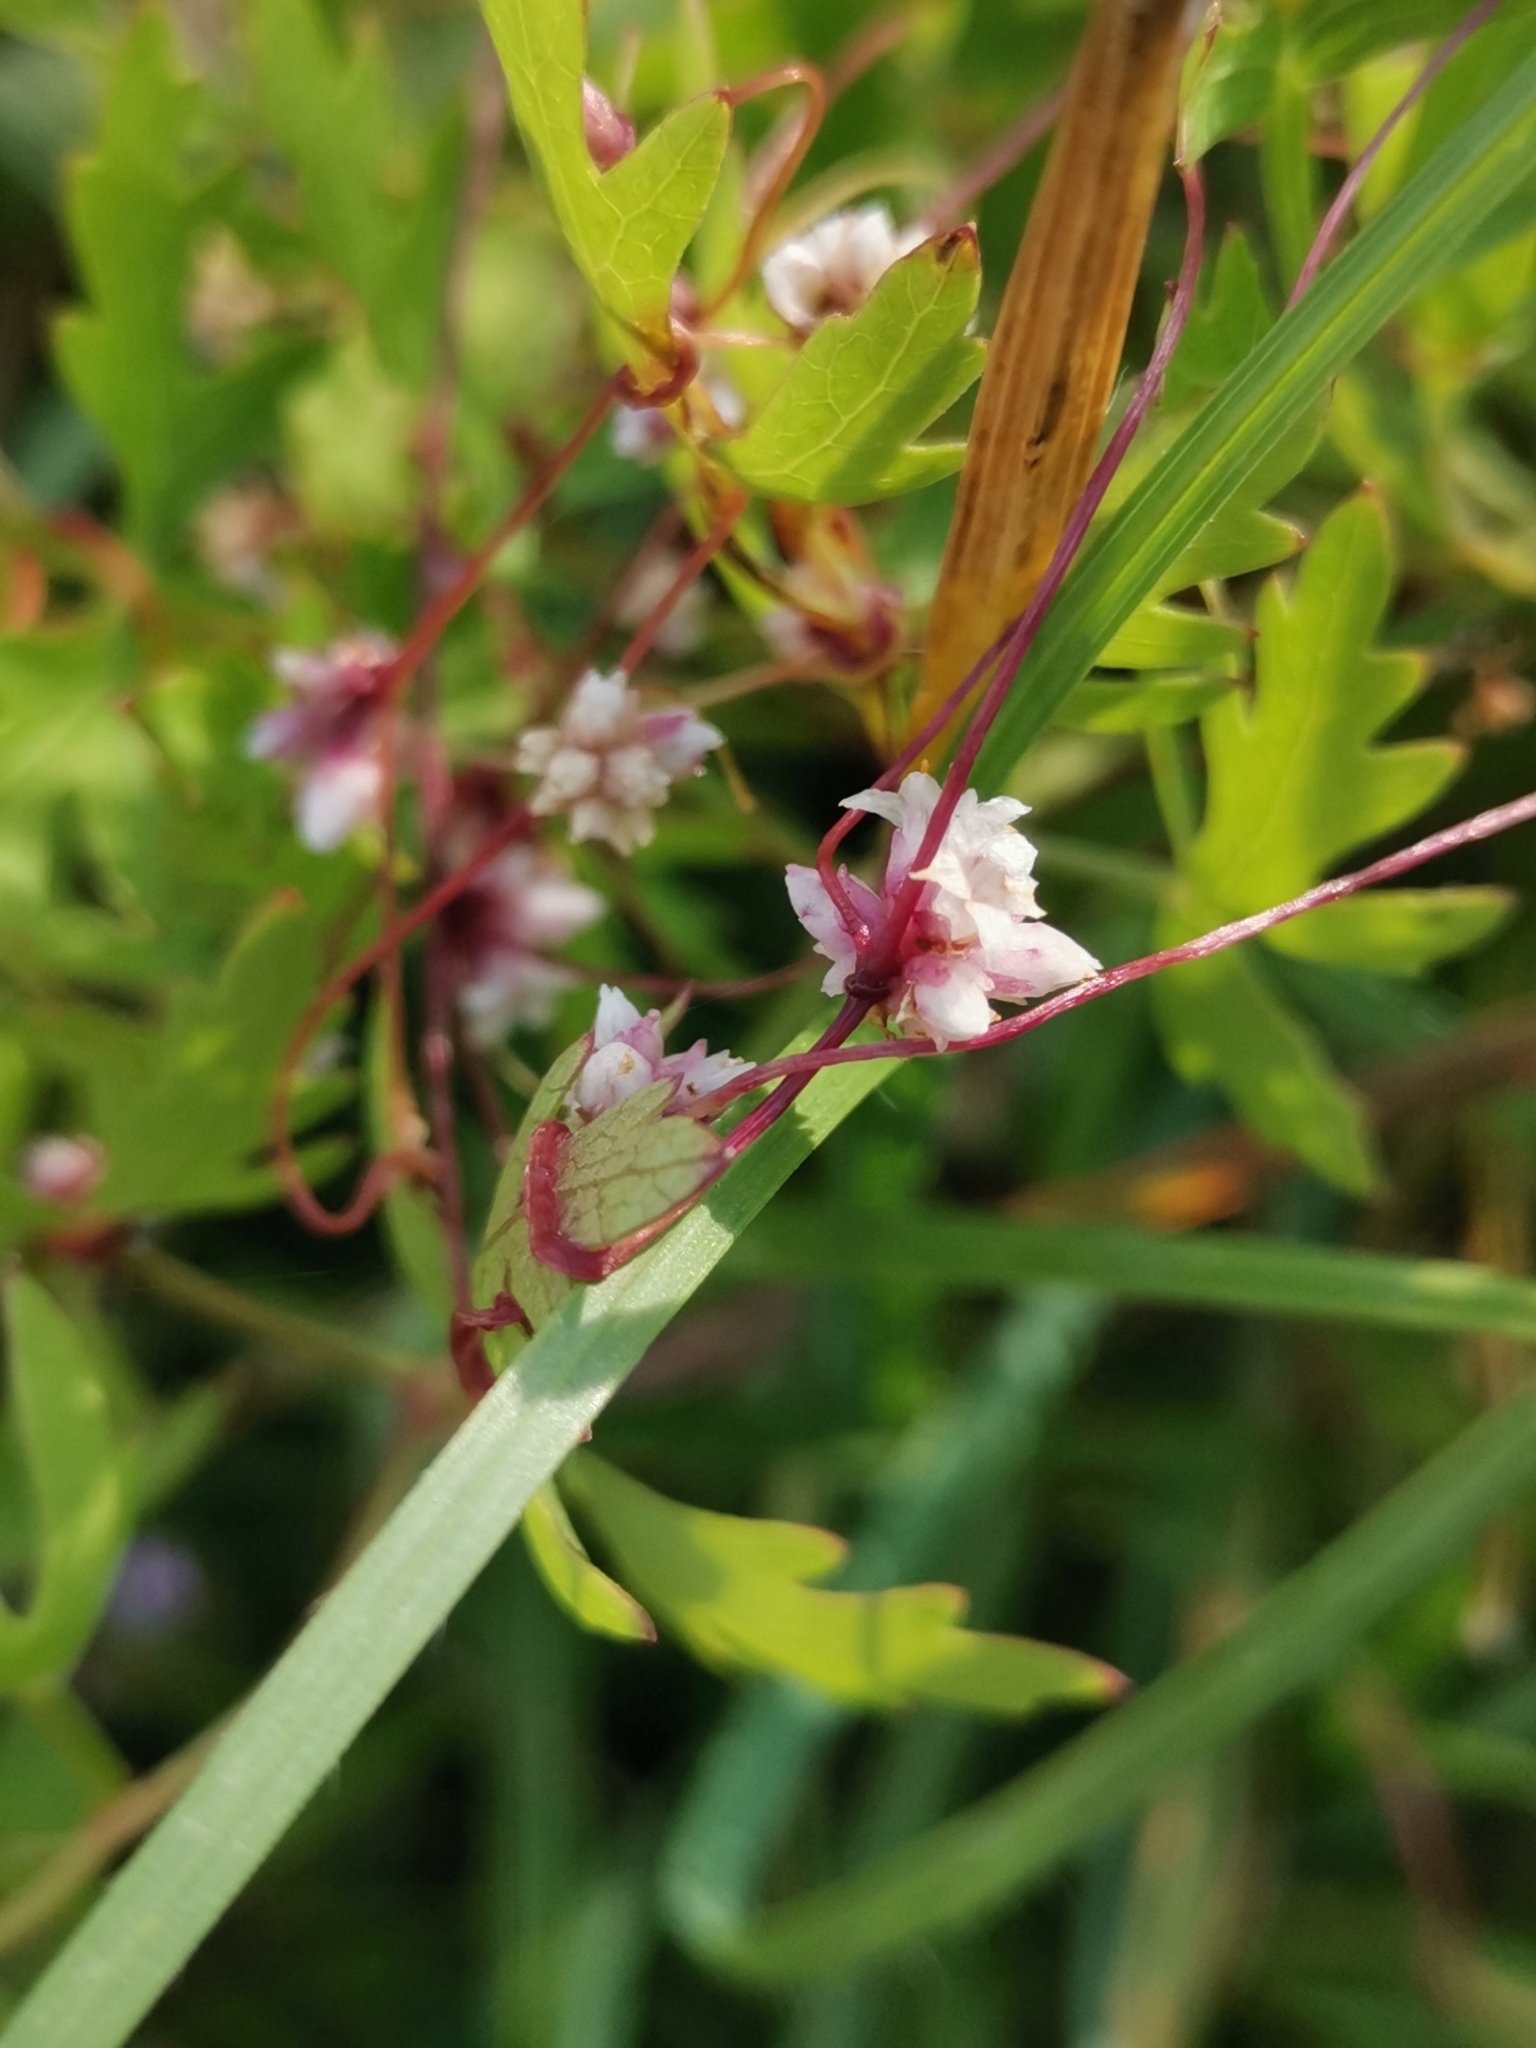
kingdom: Plantae
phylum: Tracheophyta
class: Magnoliopsida
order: Solanales
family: Convolvulaceae
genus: Cuscuta
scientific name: Cuscuta epithymum
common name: Clover dodder
